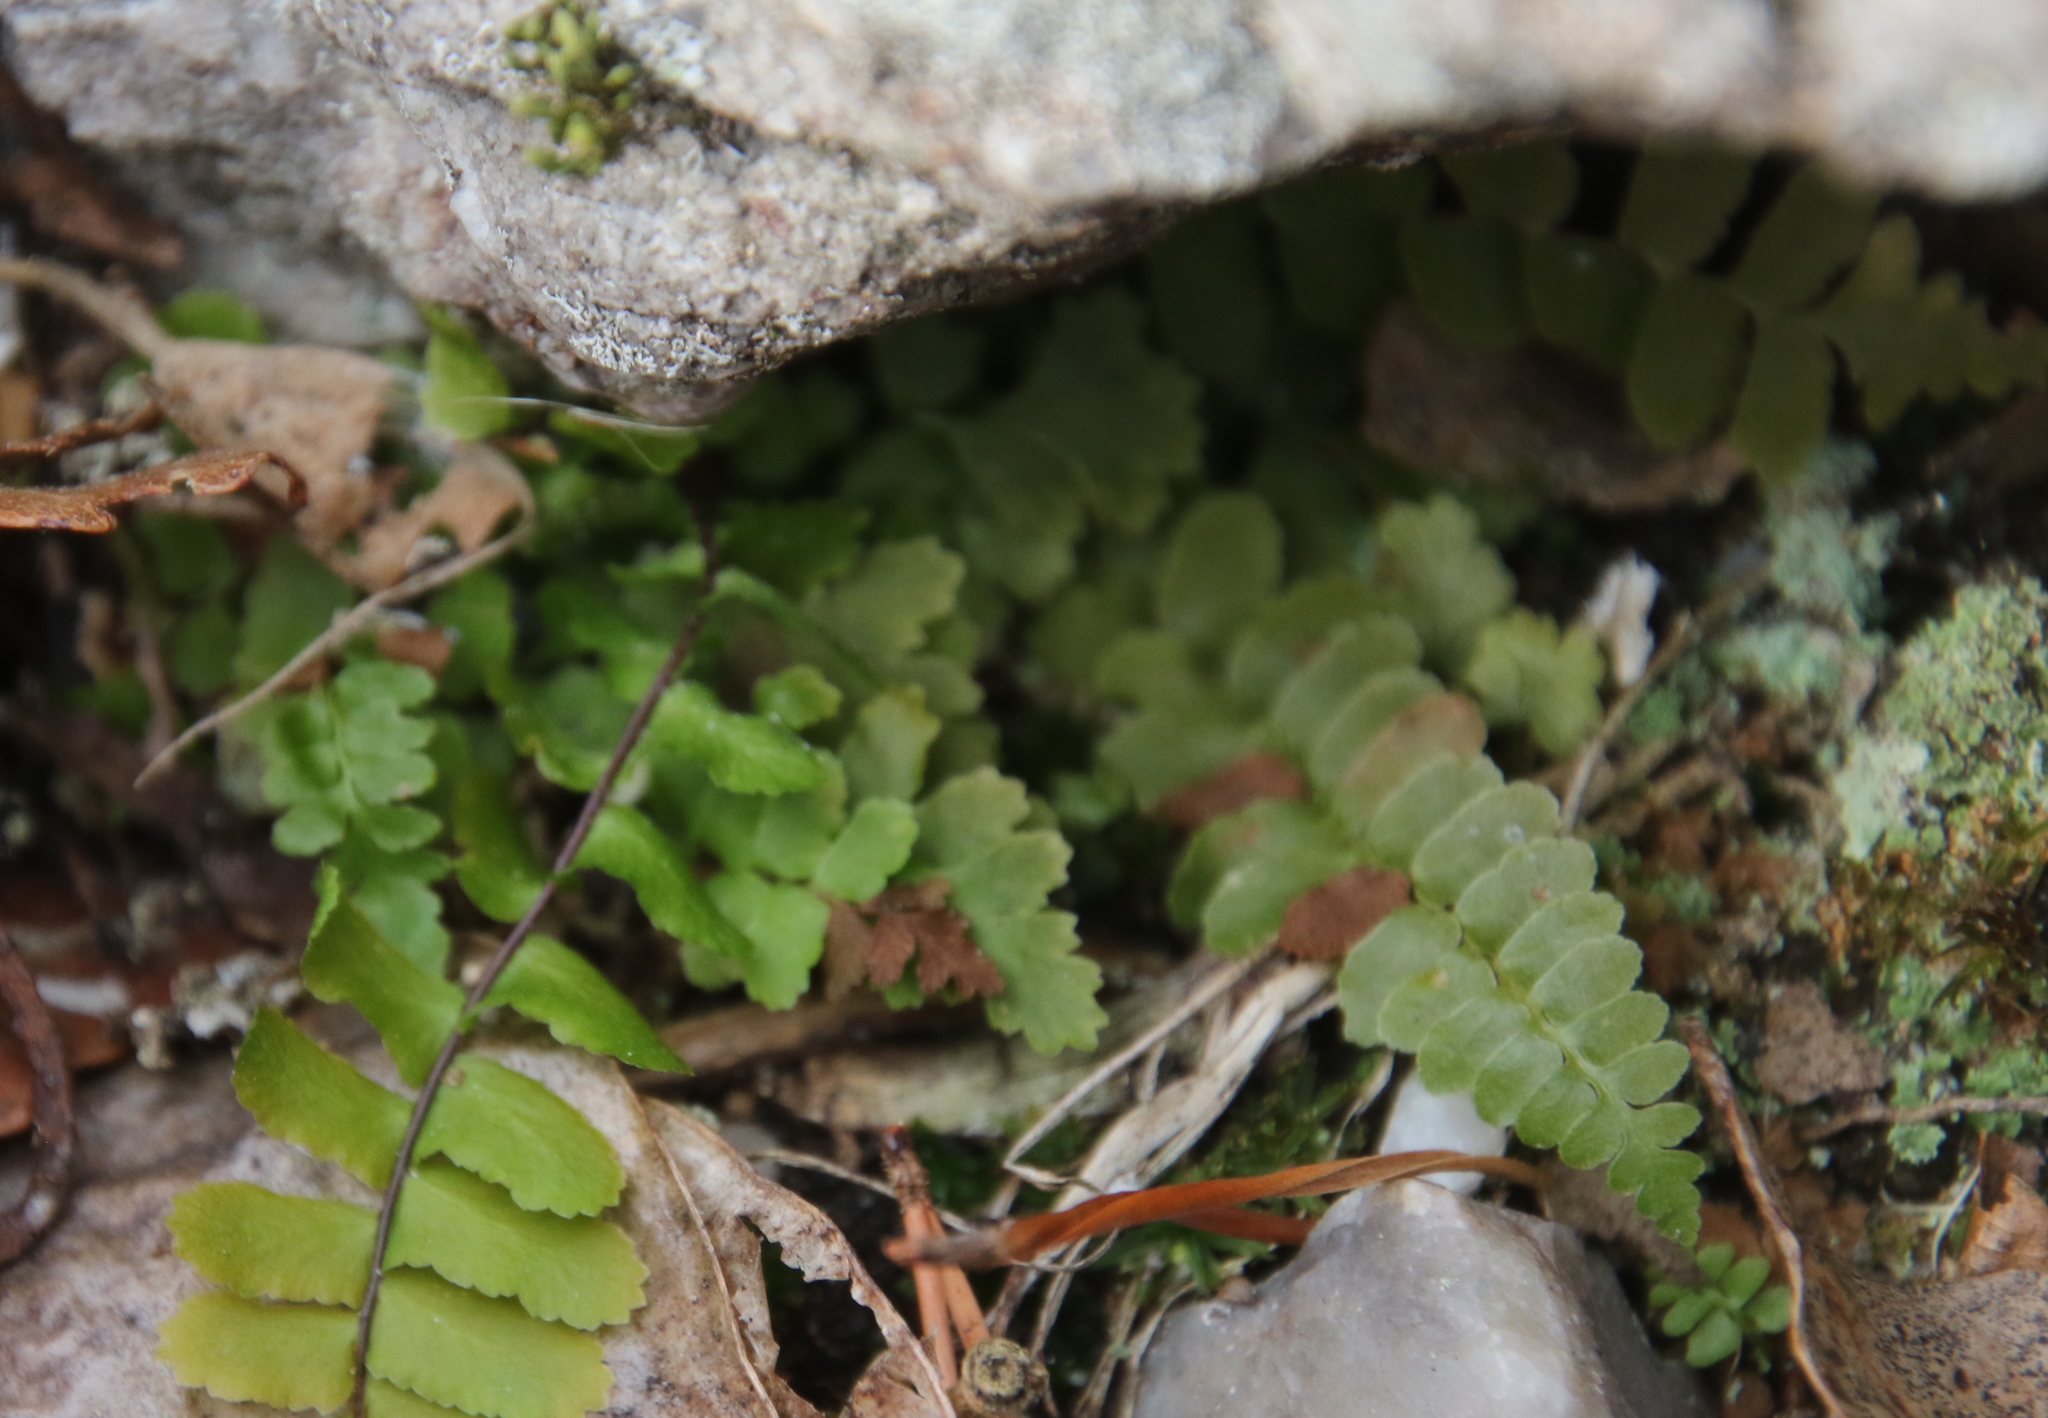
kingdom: Plantae
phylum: Tracheophyta
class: Polypodiopsida
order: Polypodiales
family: Aspleniaceae
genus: Asplenium
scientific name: Asplenium platyneuron
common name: Ebony spleenwort
